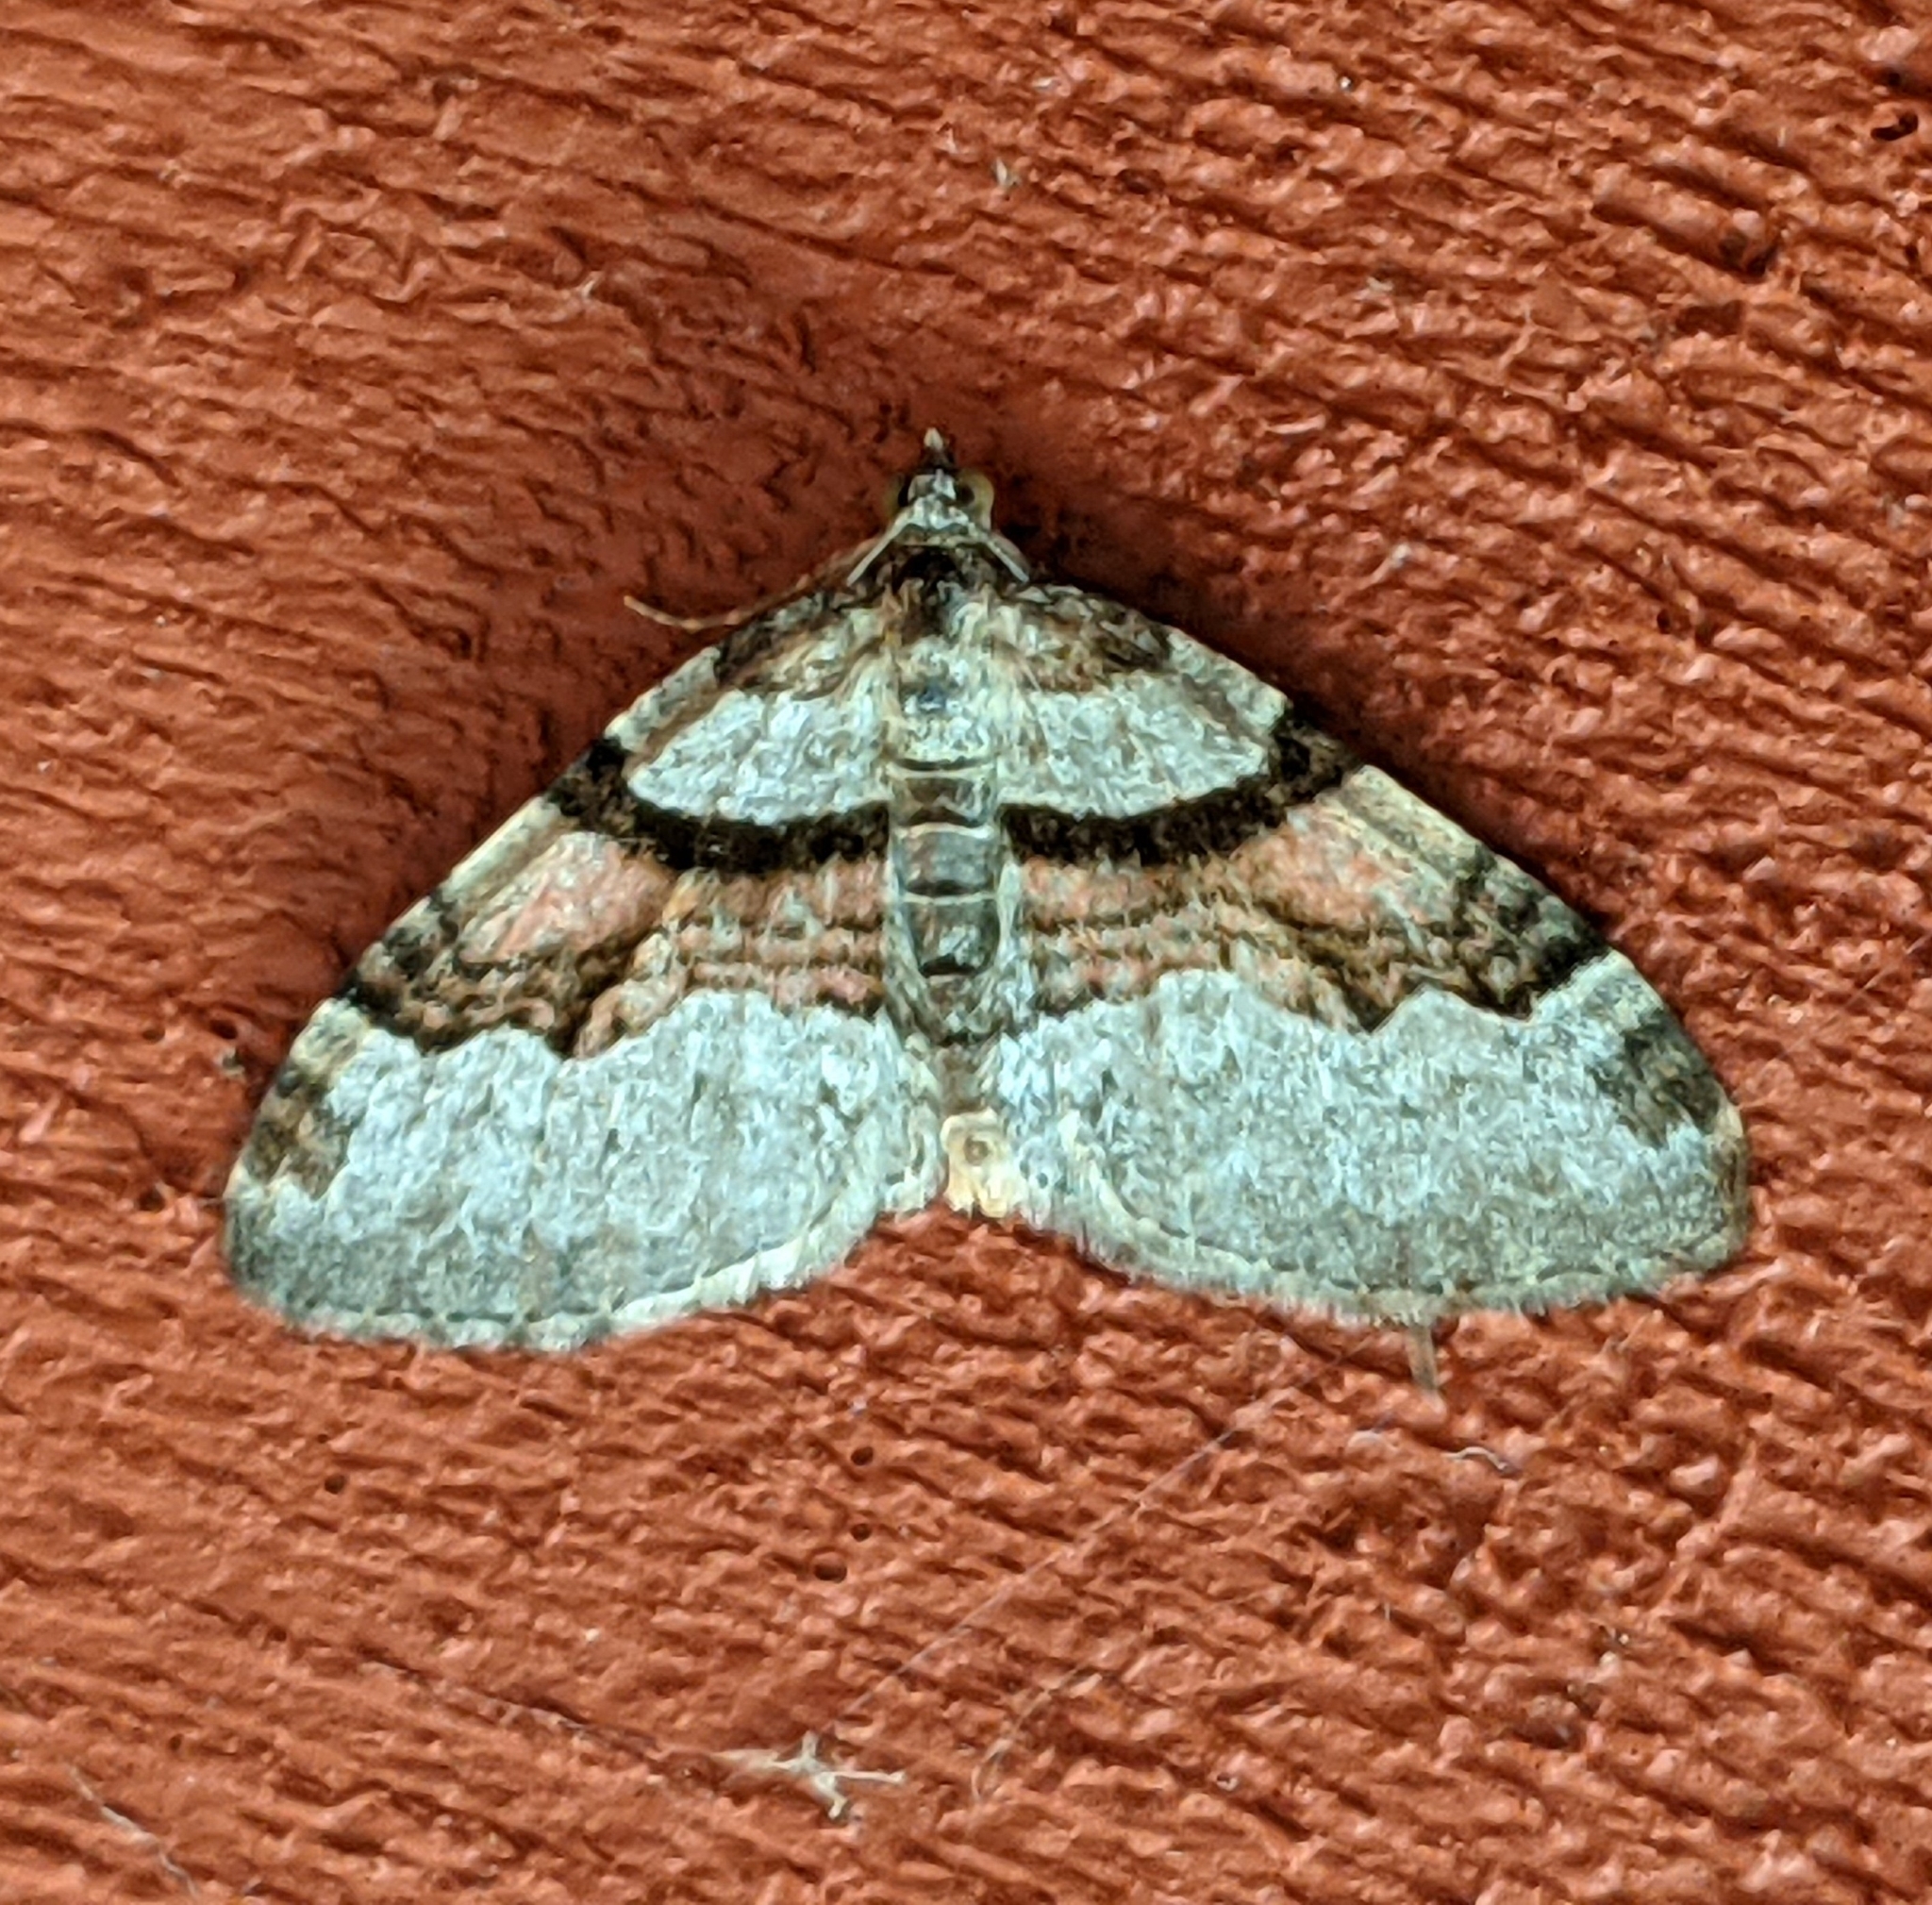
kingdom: Animalia
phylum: Arthropoda
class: Insecta
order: Lepidoptera
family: Geometridae
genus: Xanthorhoe
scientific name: Xanthorhoe labradorensis
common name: Labrador carpet
